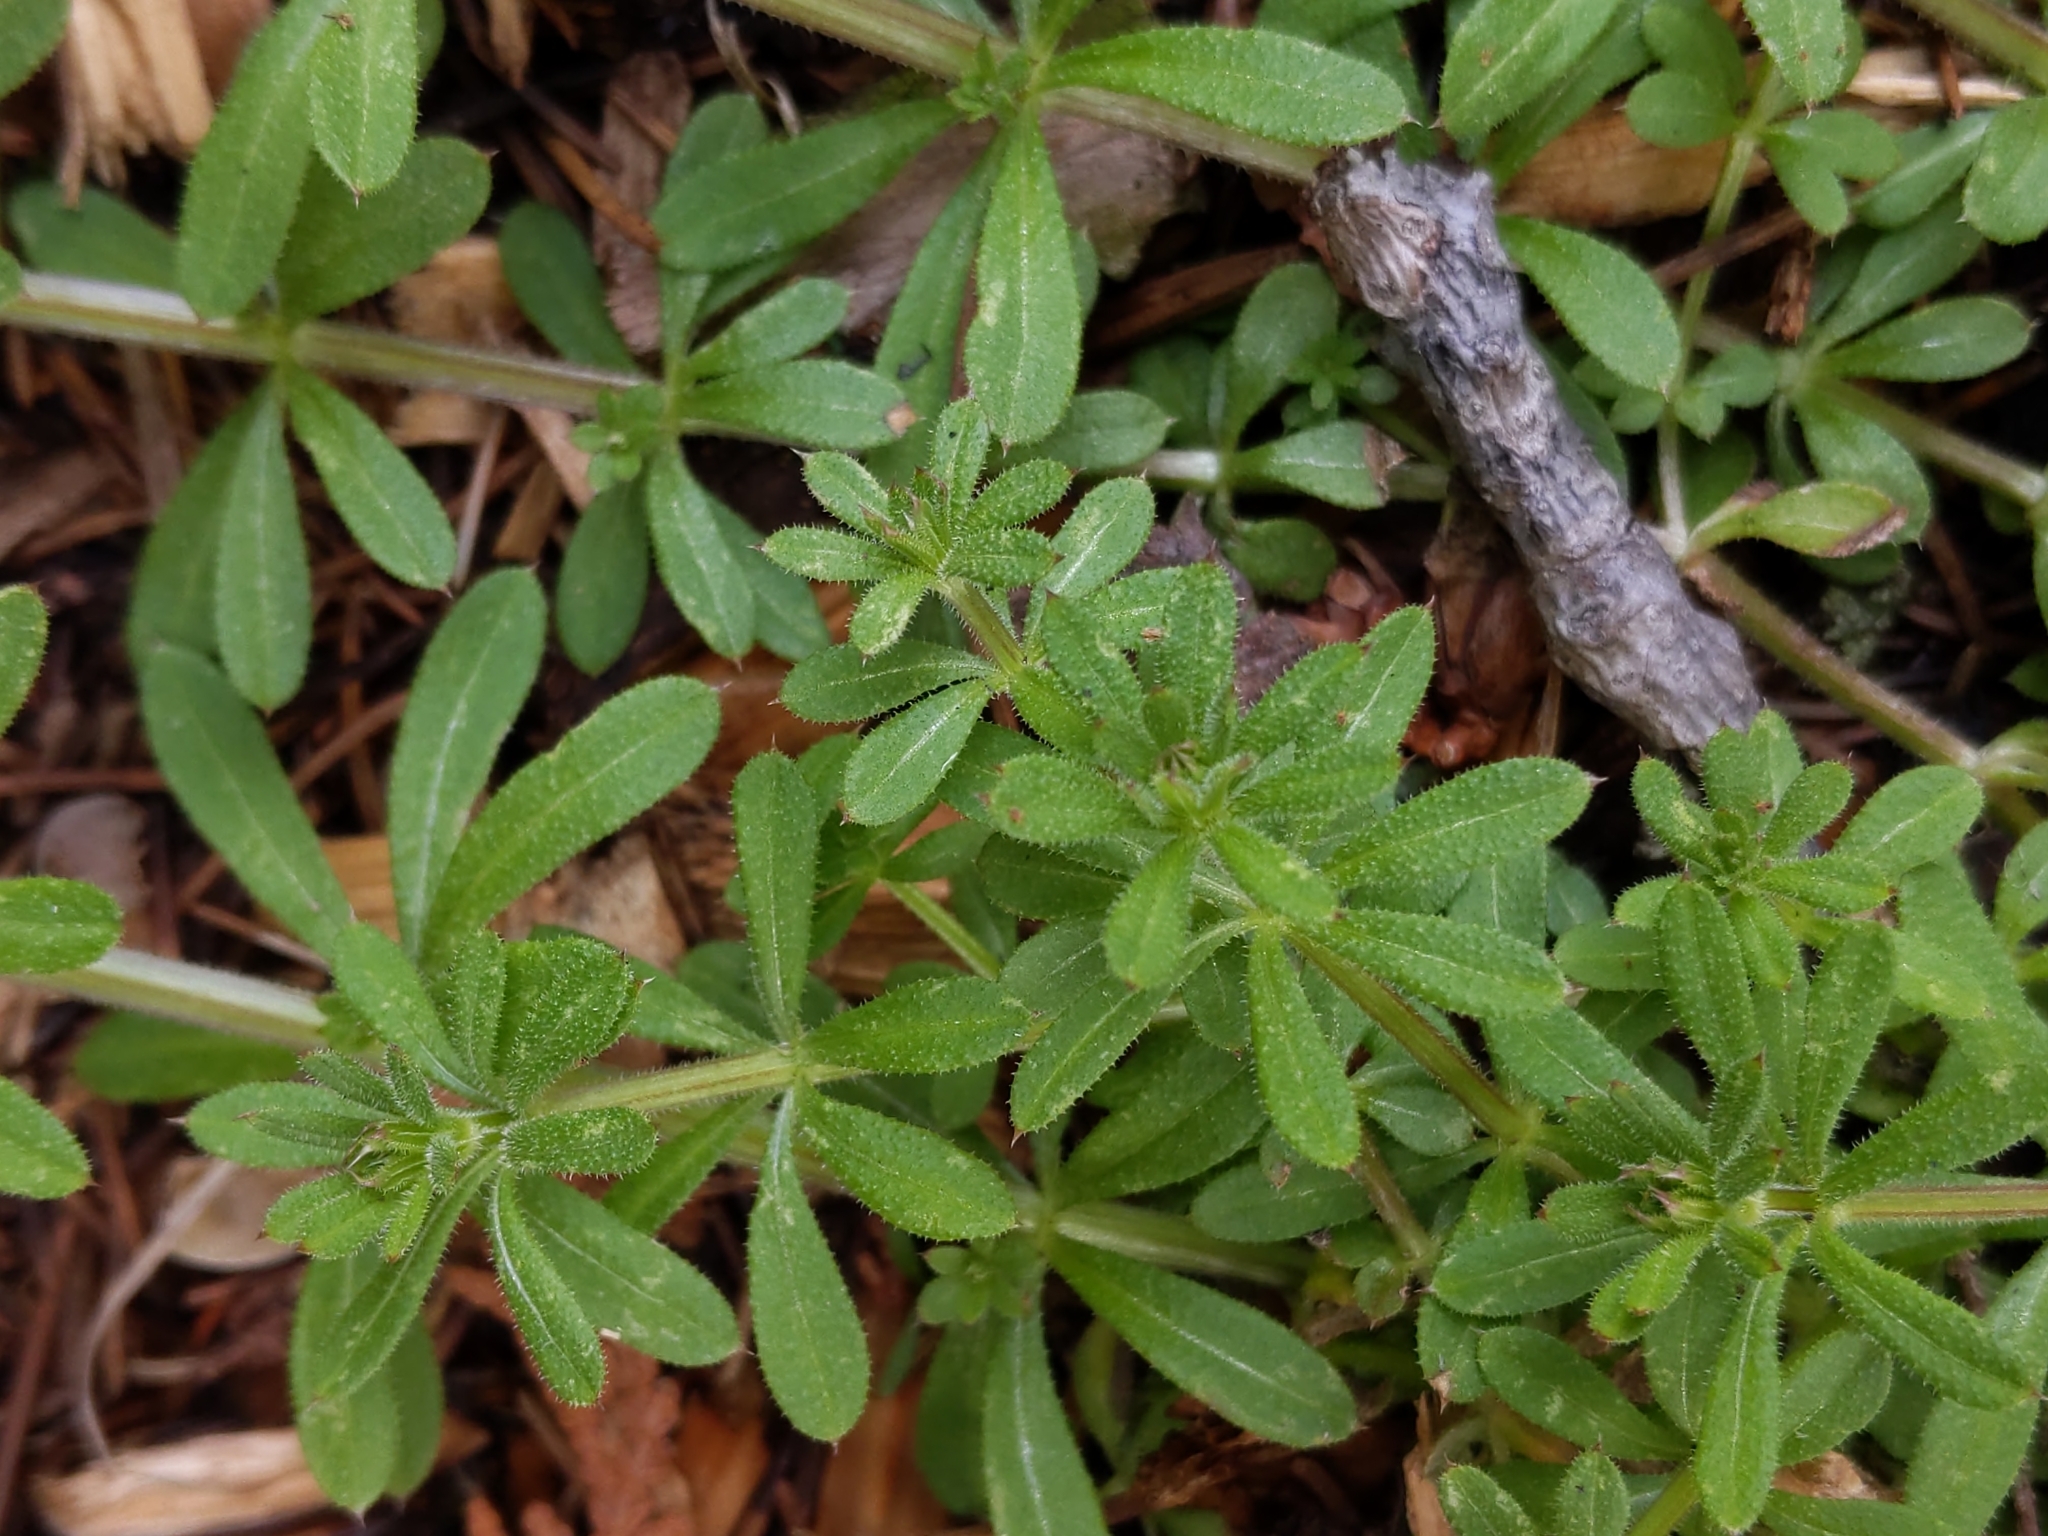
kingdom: Plantae
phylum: Tracheophyta
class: Magnoliopsida
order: Gentianales
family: Rubiaceae
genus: Galium
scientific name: Galium aparine
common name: Cleavers
